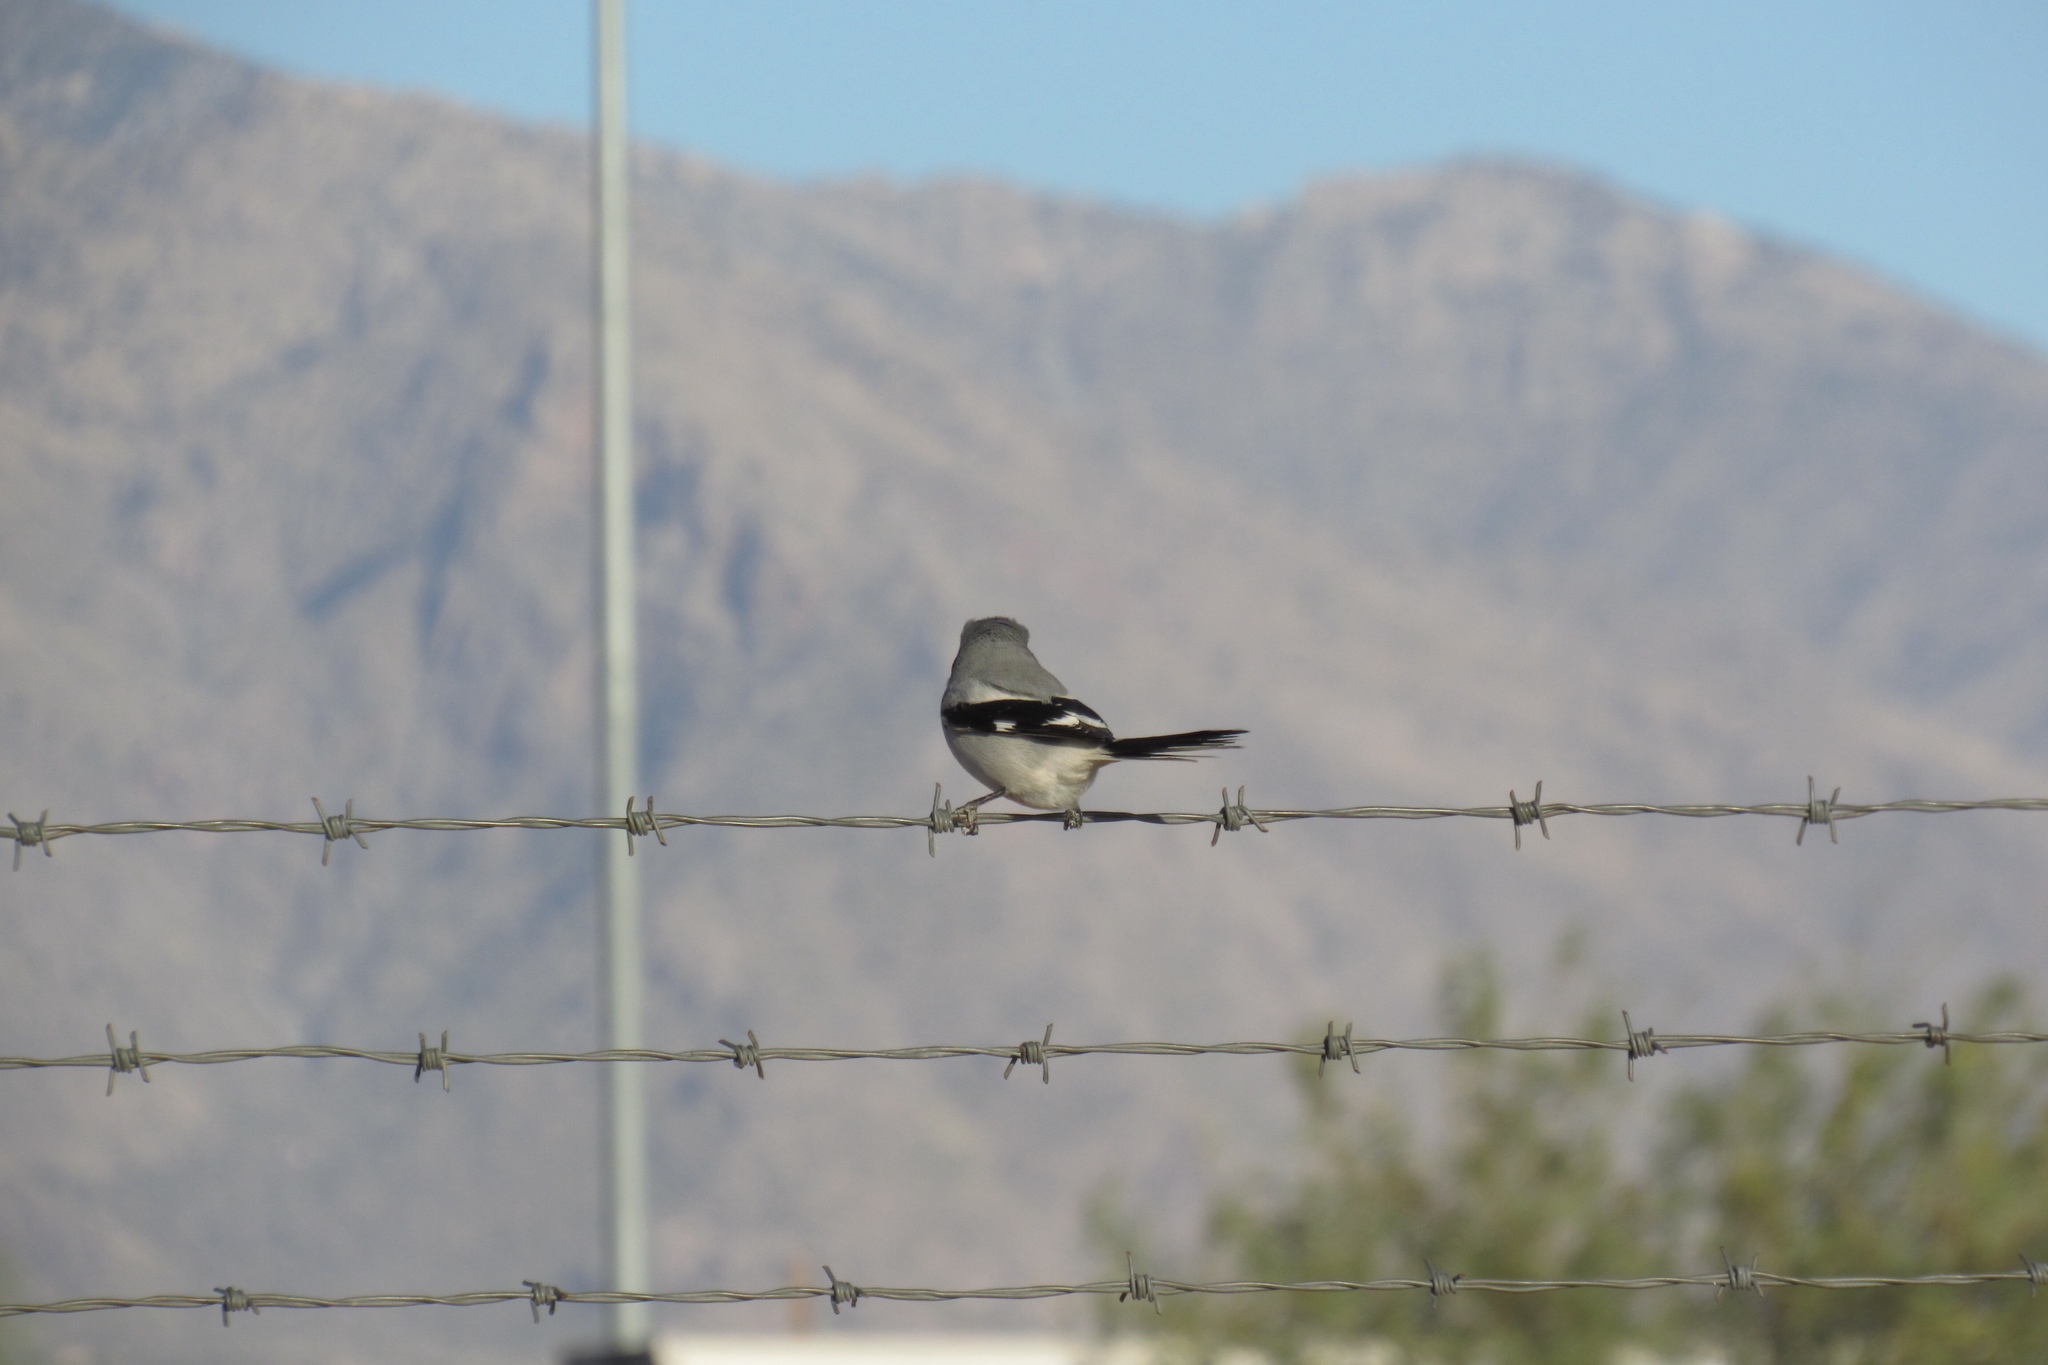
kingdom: Animalia
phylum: Chordata
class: Aves
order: Passeriformes
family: Laniidae
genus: Lanius
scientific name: Lanius ludovicianus
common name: Loggerhead shrike
